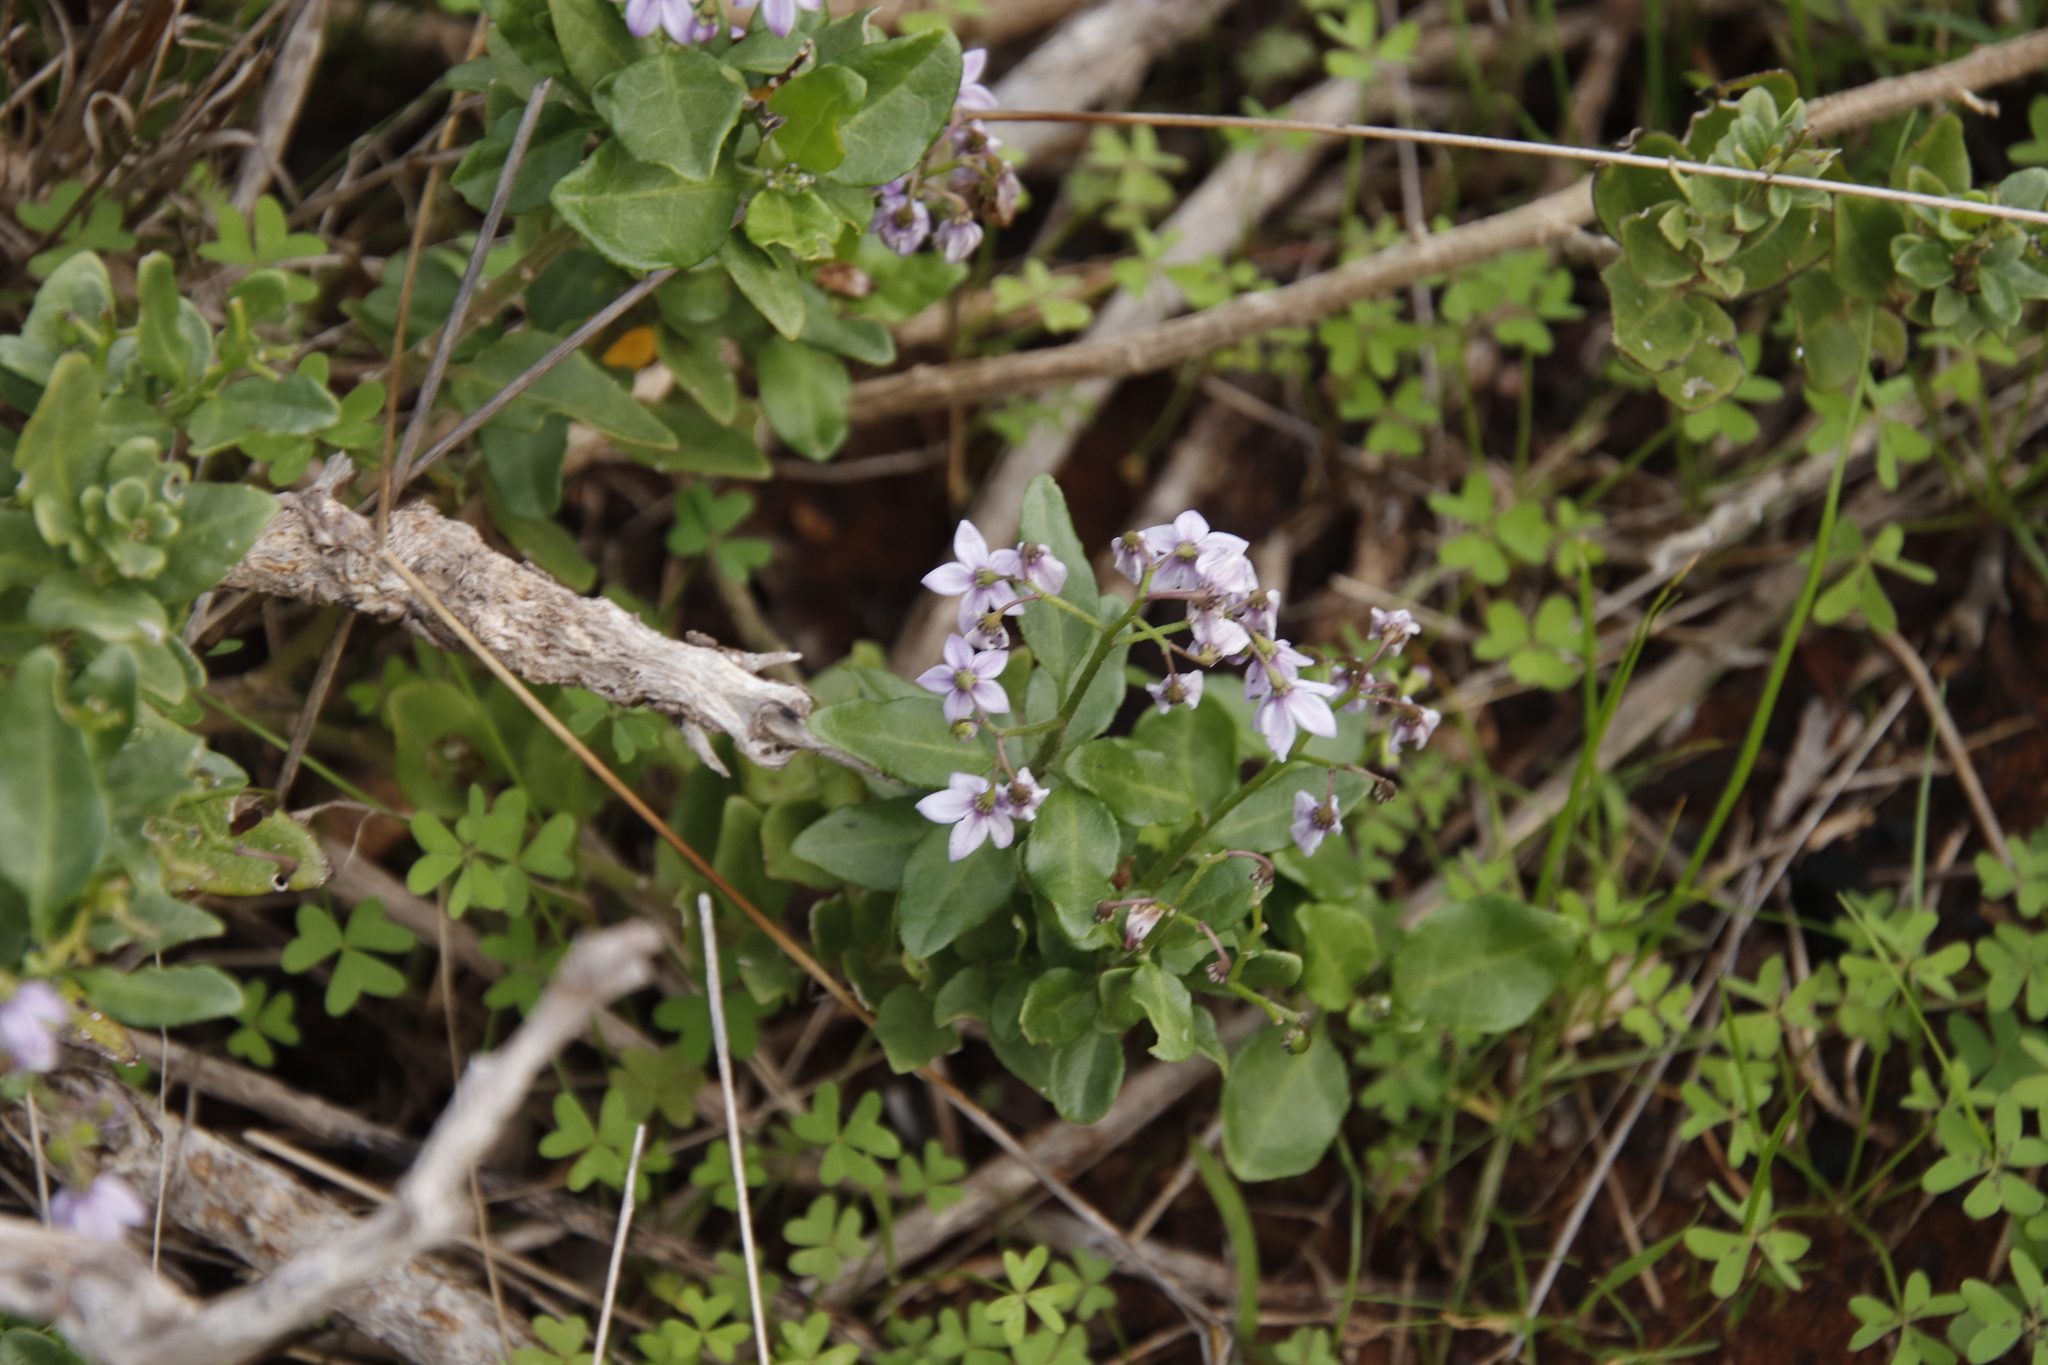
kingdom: Plantae
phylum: Tracheophyta
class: Magnoliopsida
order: Solanales
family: Solanaceae
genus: Solanum
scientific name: Solanum africanum
